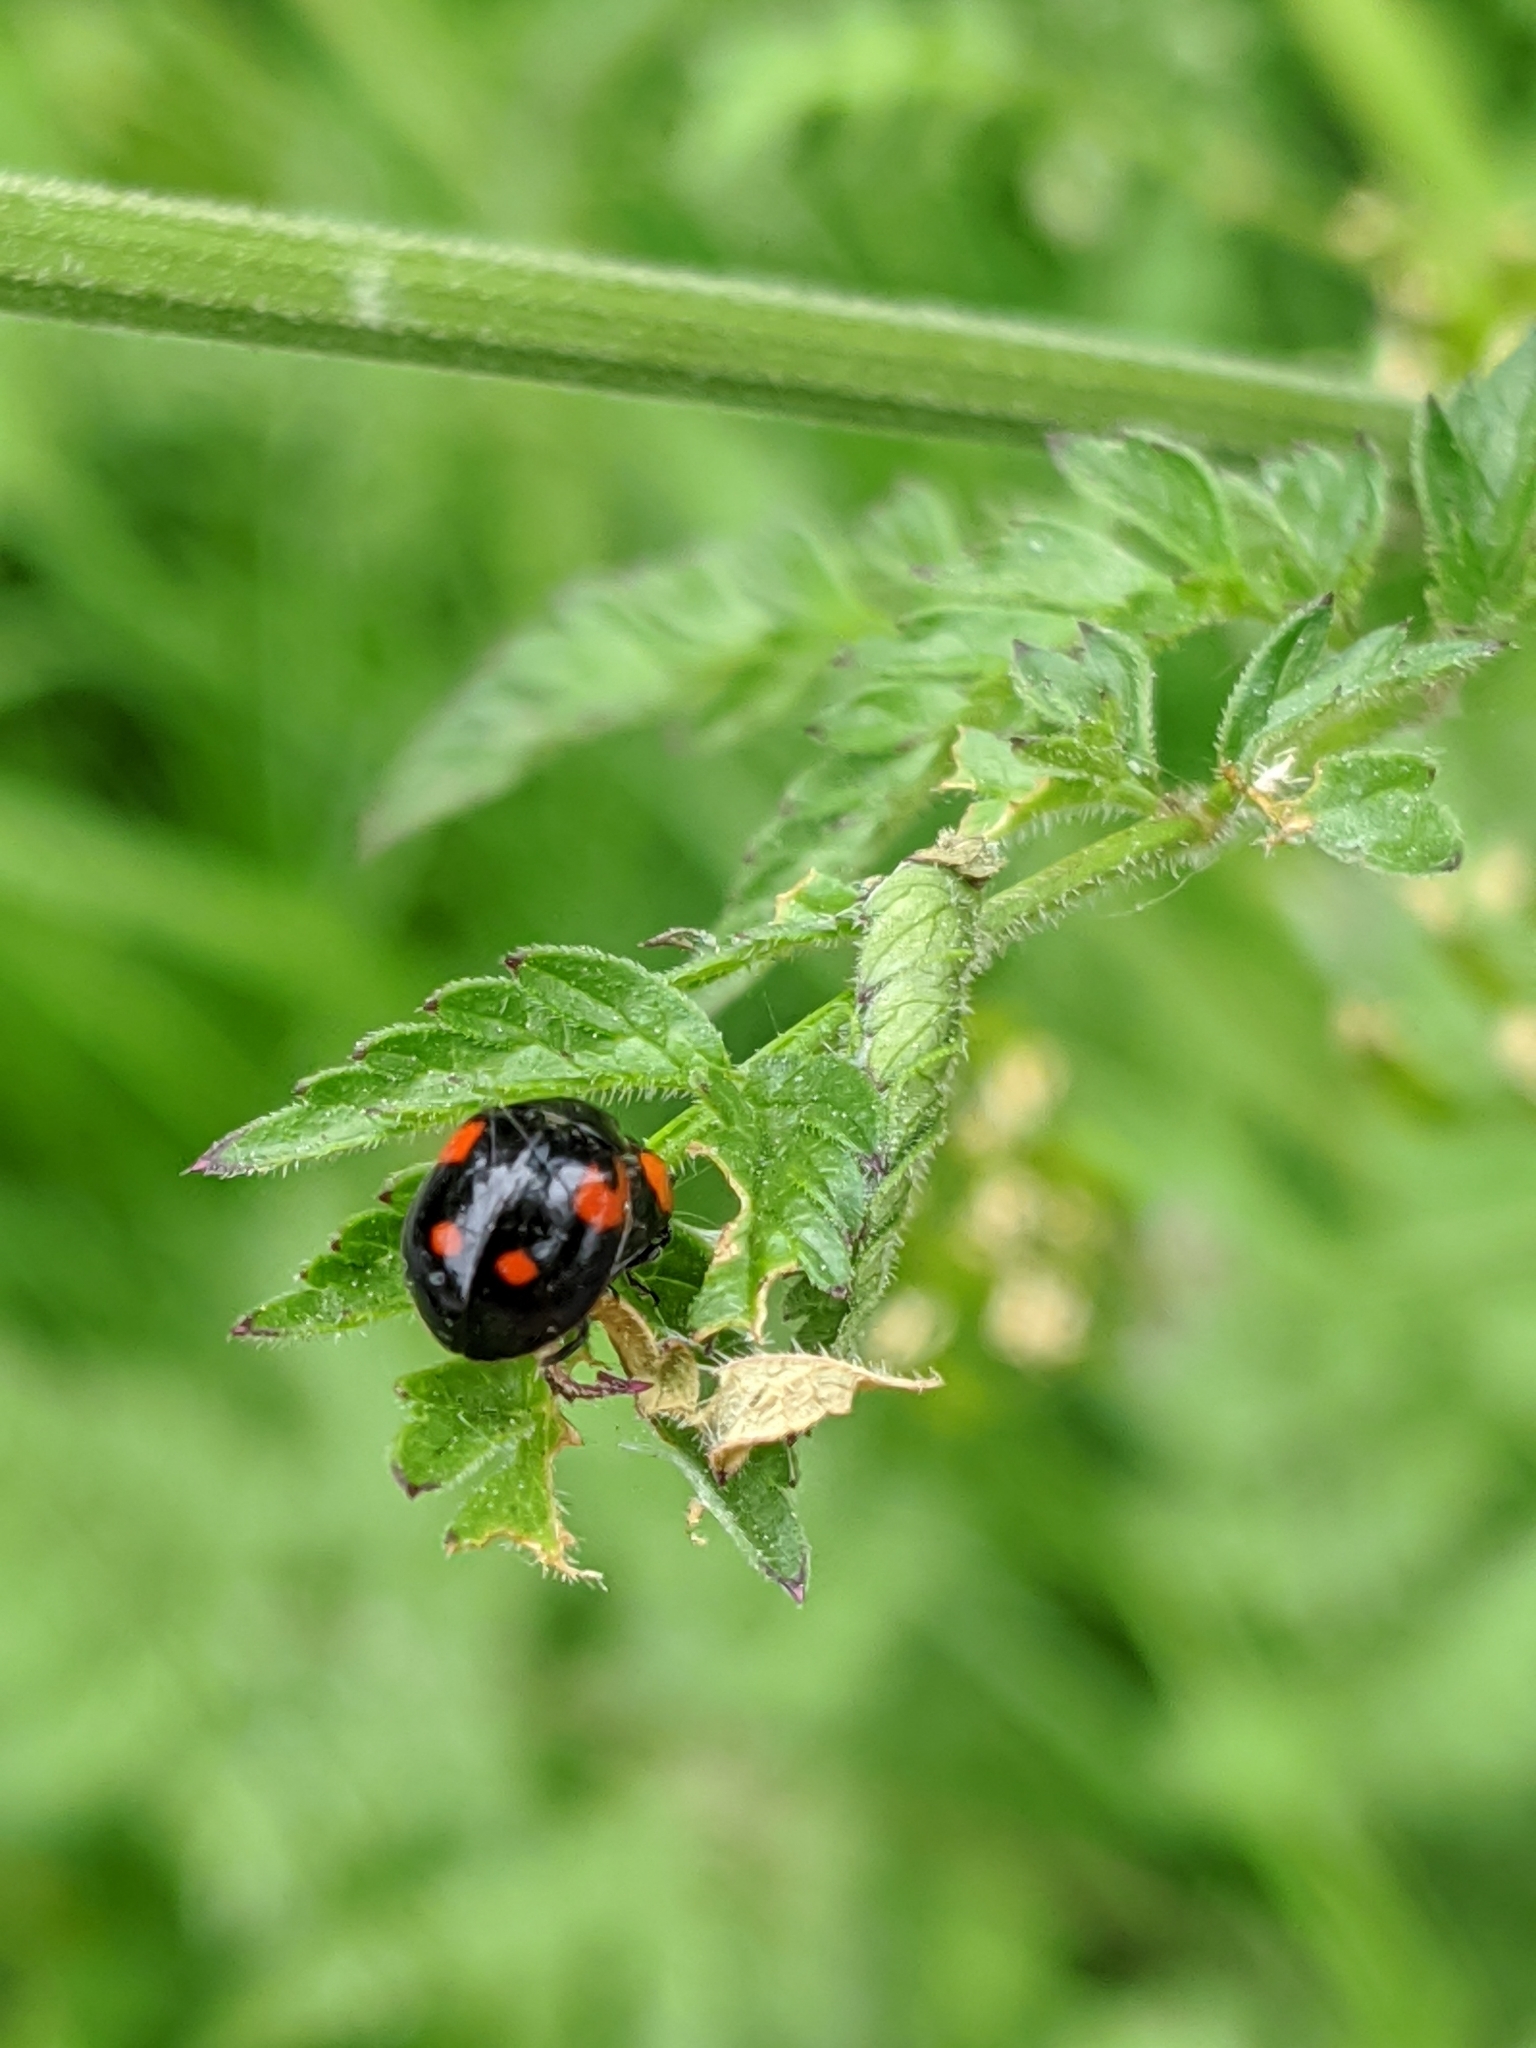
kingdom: Animalia
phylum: Arthropoda
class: Insecta
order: Coleoptera
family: Coccinellidae
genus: Brumus
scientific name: Brumus quadripustulatus
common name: Ladybird beetle
